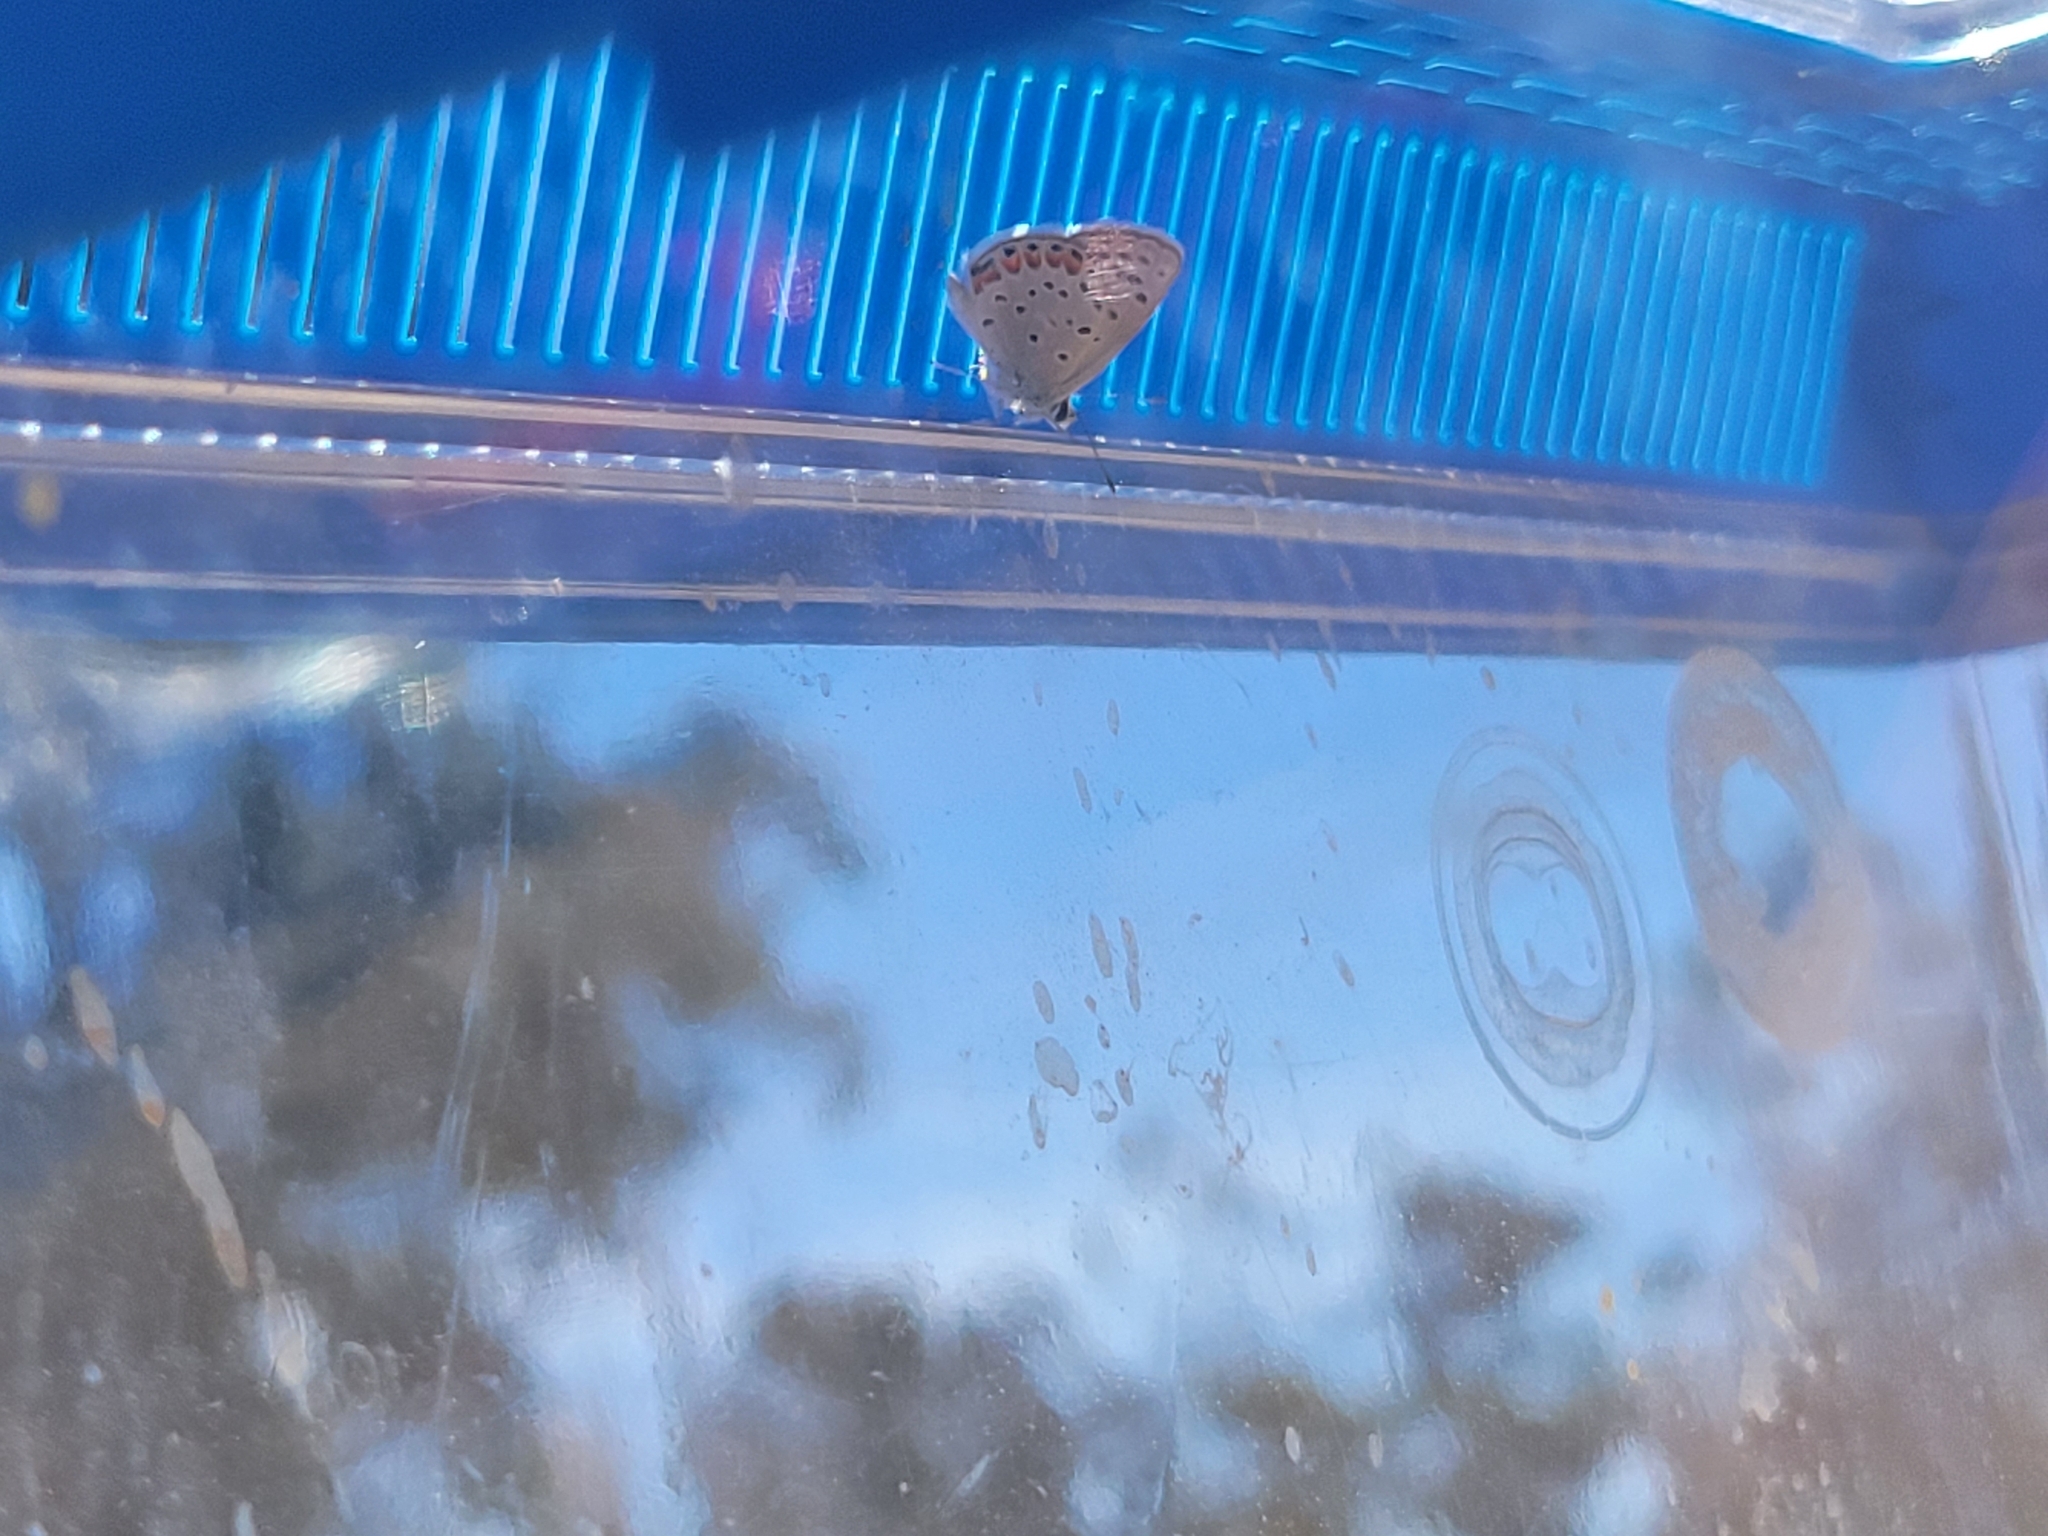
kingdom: Animalia
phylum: Arthropoda
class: Insecta
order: Lepidoptera
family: Lycaenidae
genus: Icaricia
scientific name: Icaricia acmon
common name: Acmon blue
